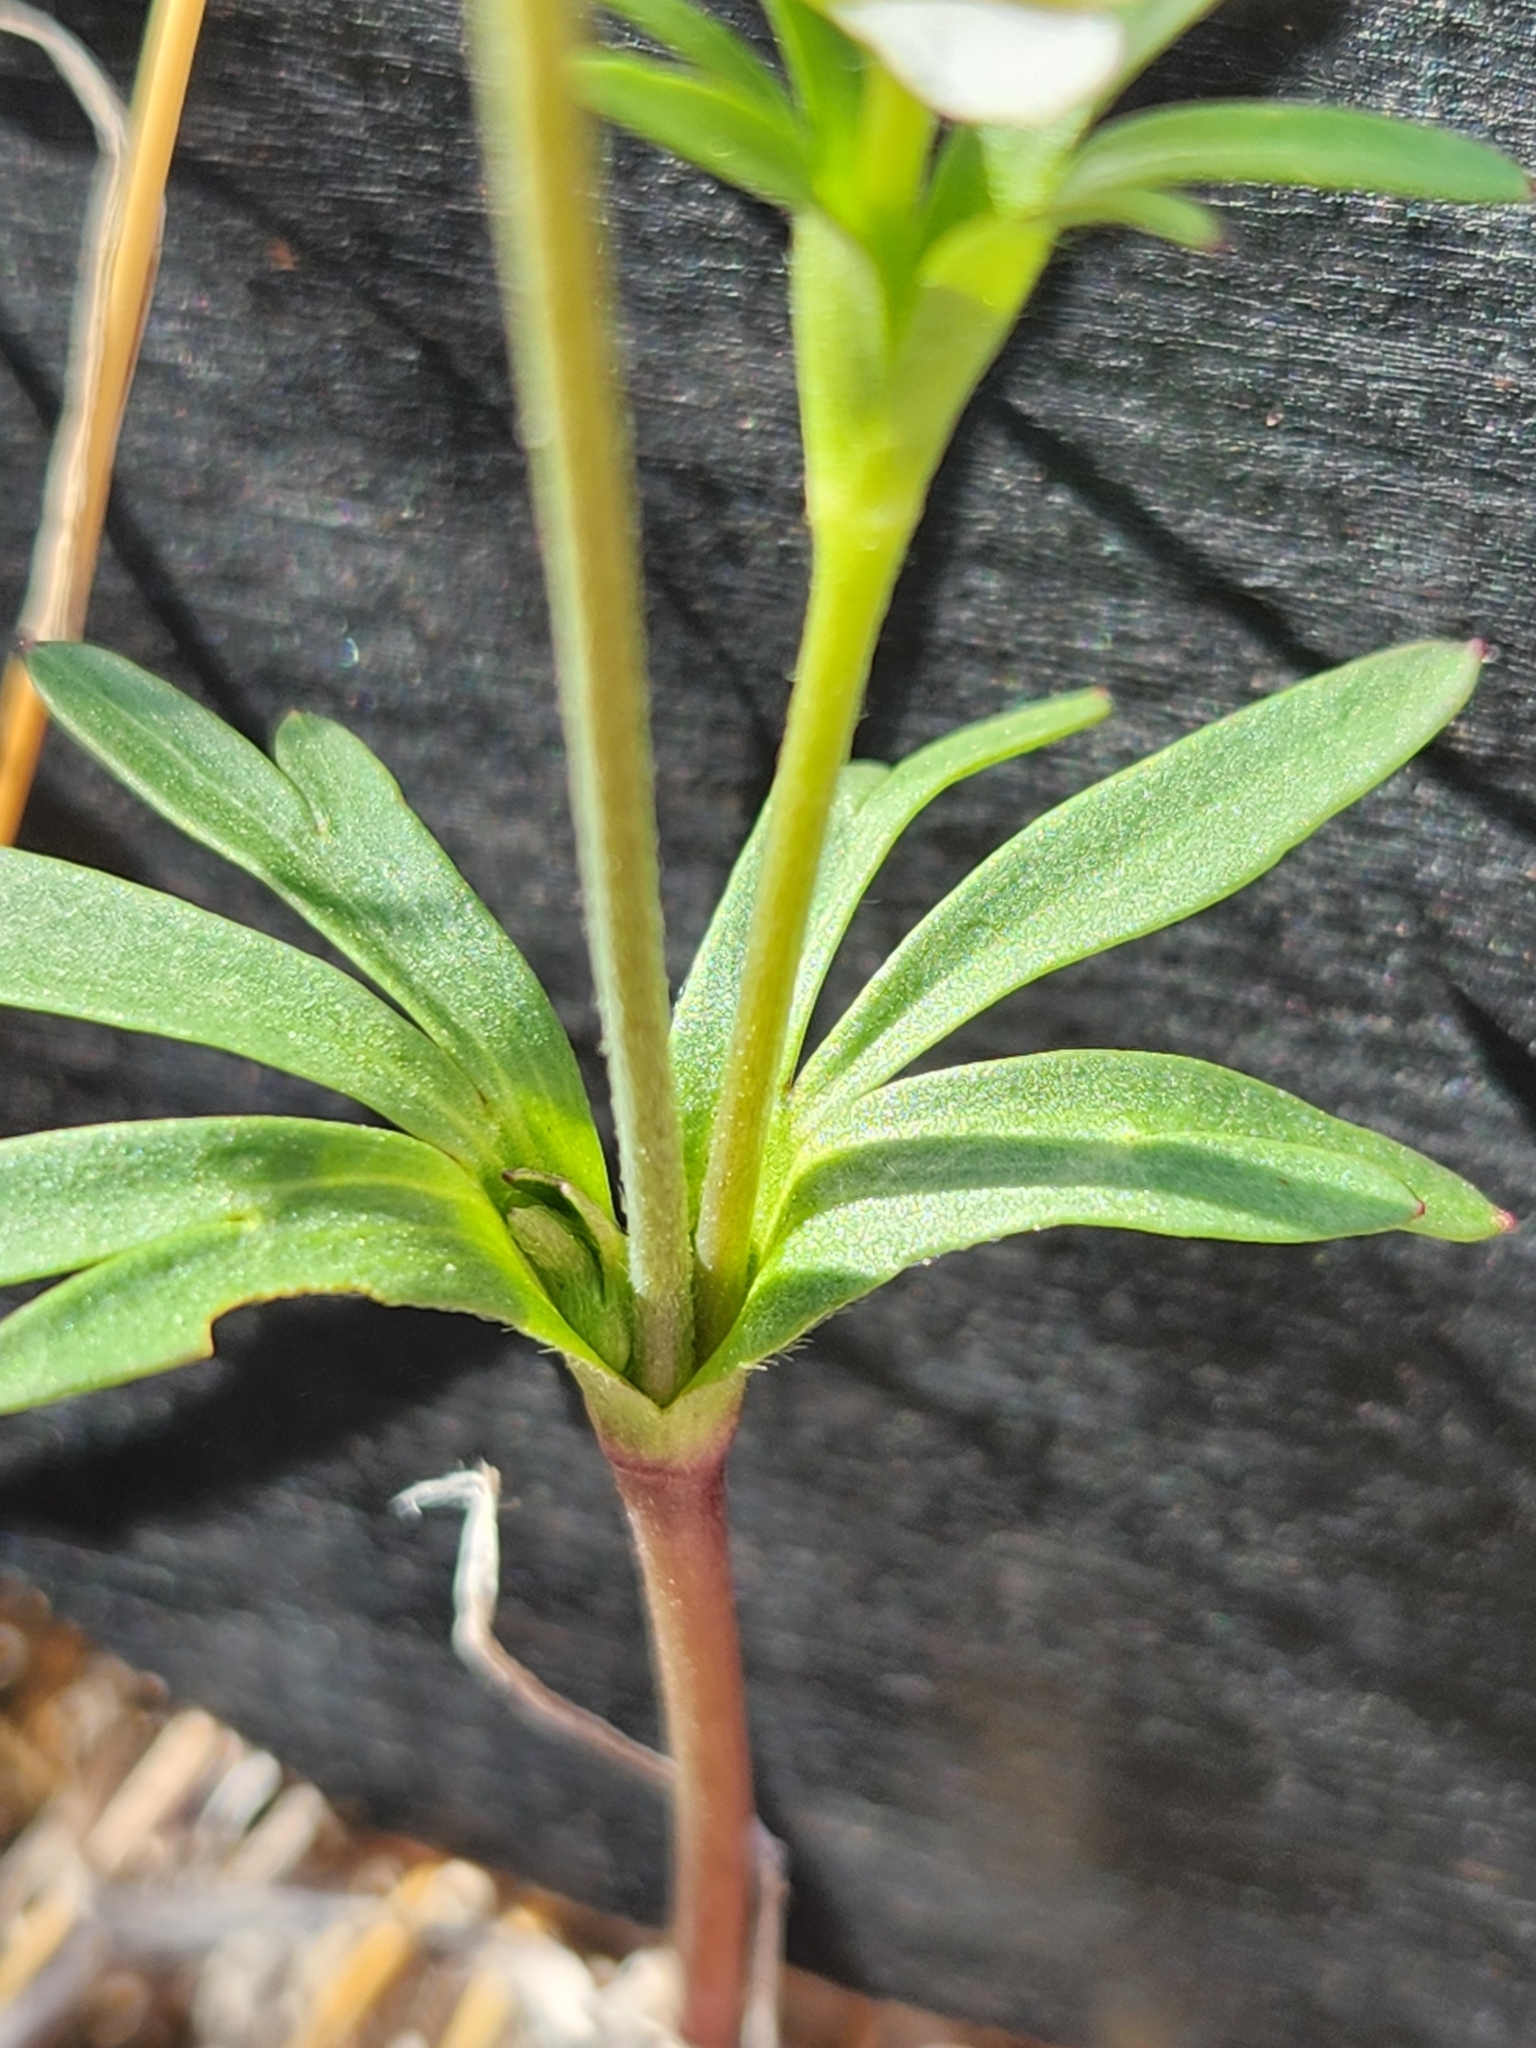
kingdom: Plantae
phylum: Tracheophyta
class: Magnoliopsida
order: Ranunculales
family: Ranunculaceae
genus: Anemone
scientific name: Anemone edwardsiana
